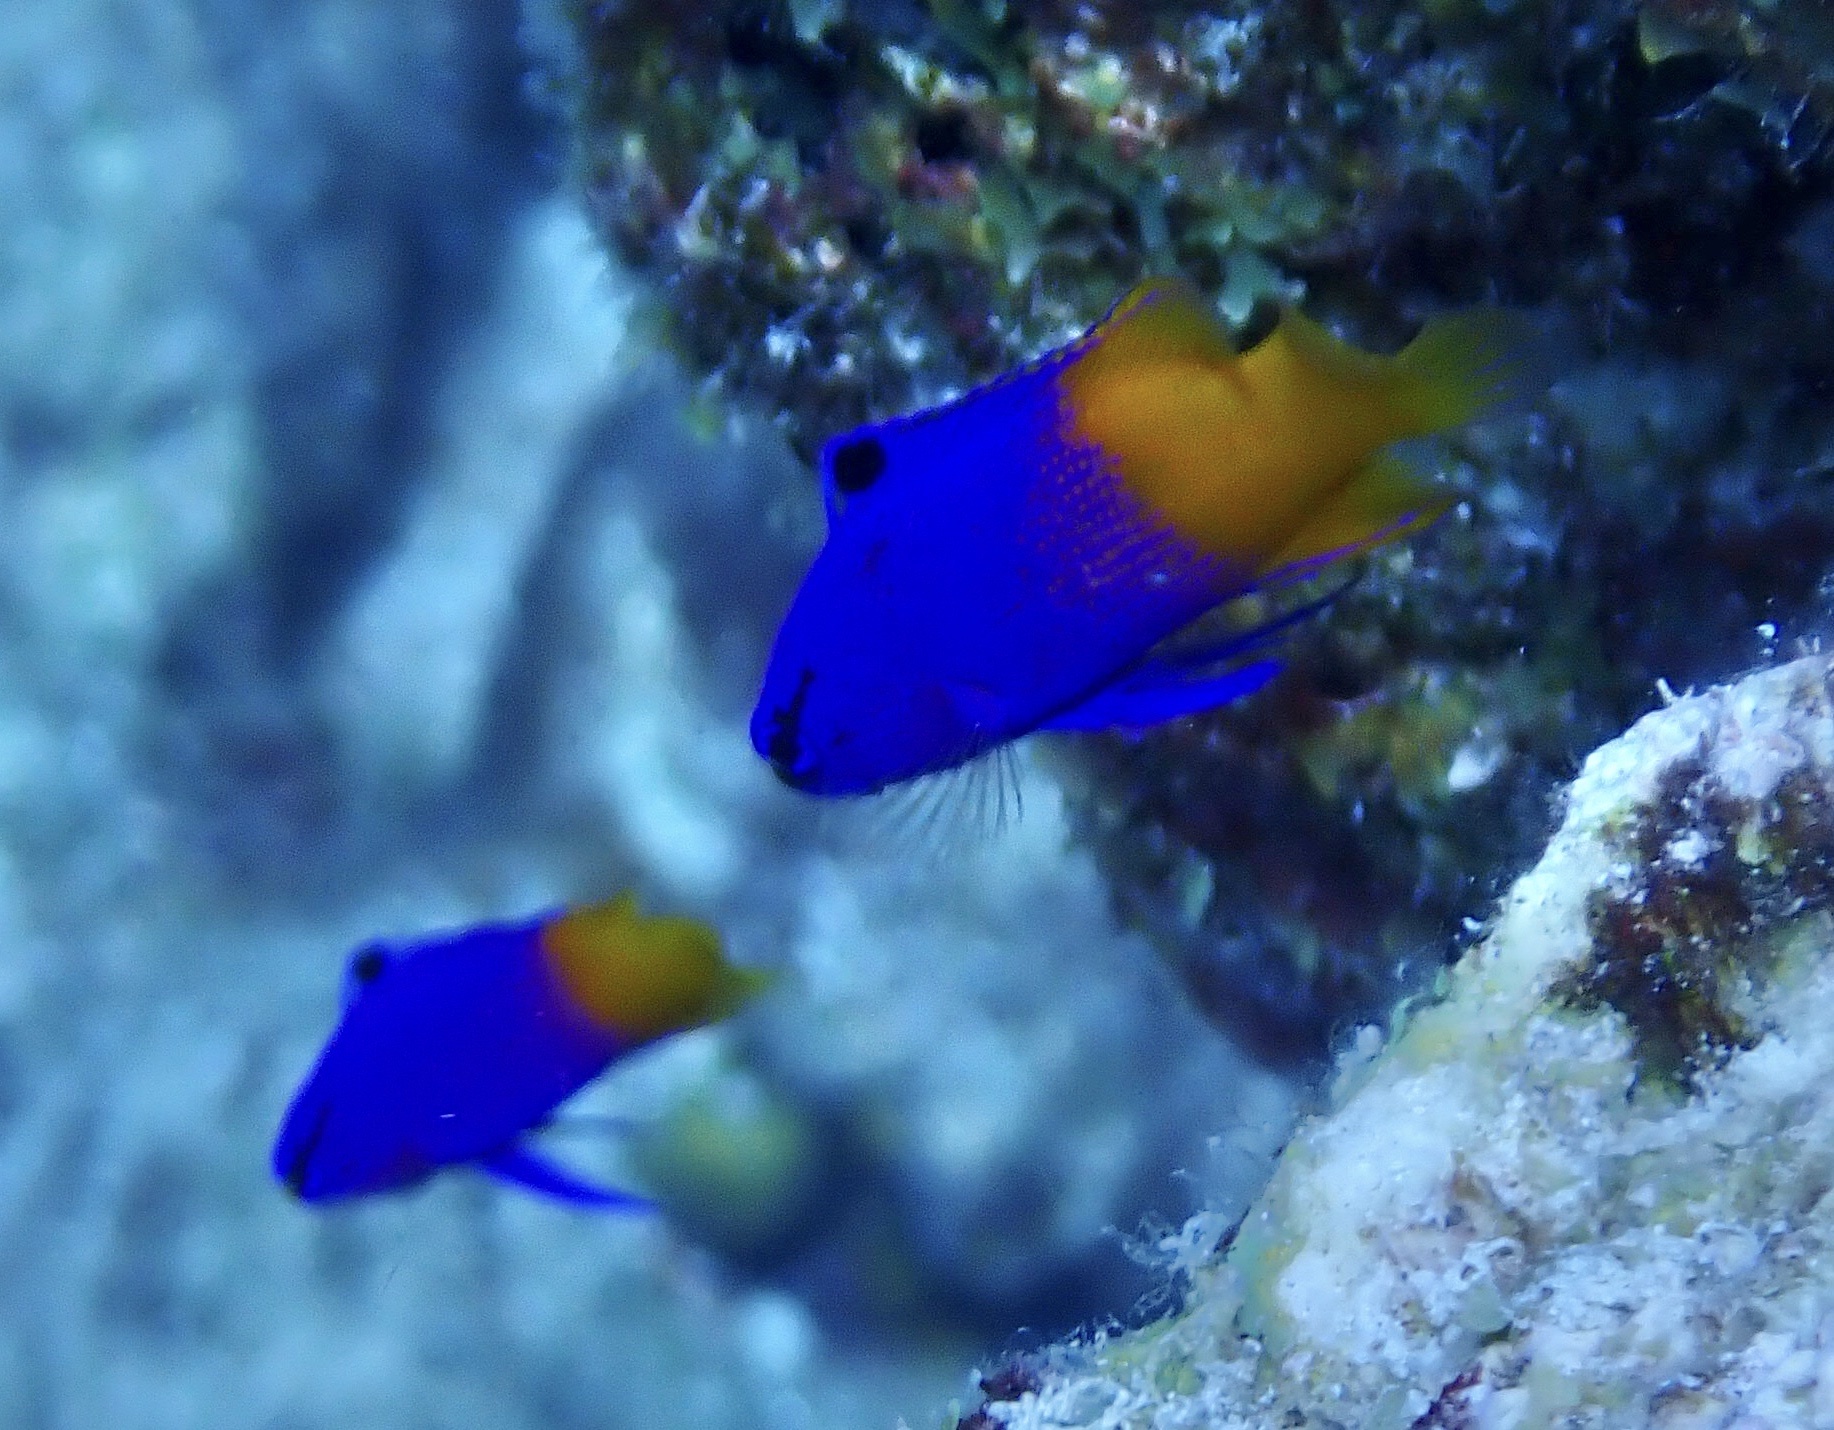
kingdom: Animalia
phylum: Chordata
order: Perciformes
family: Grammatidae
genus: Gramma
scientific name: Gramma loreto
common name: Fairy basslet
